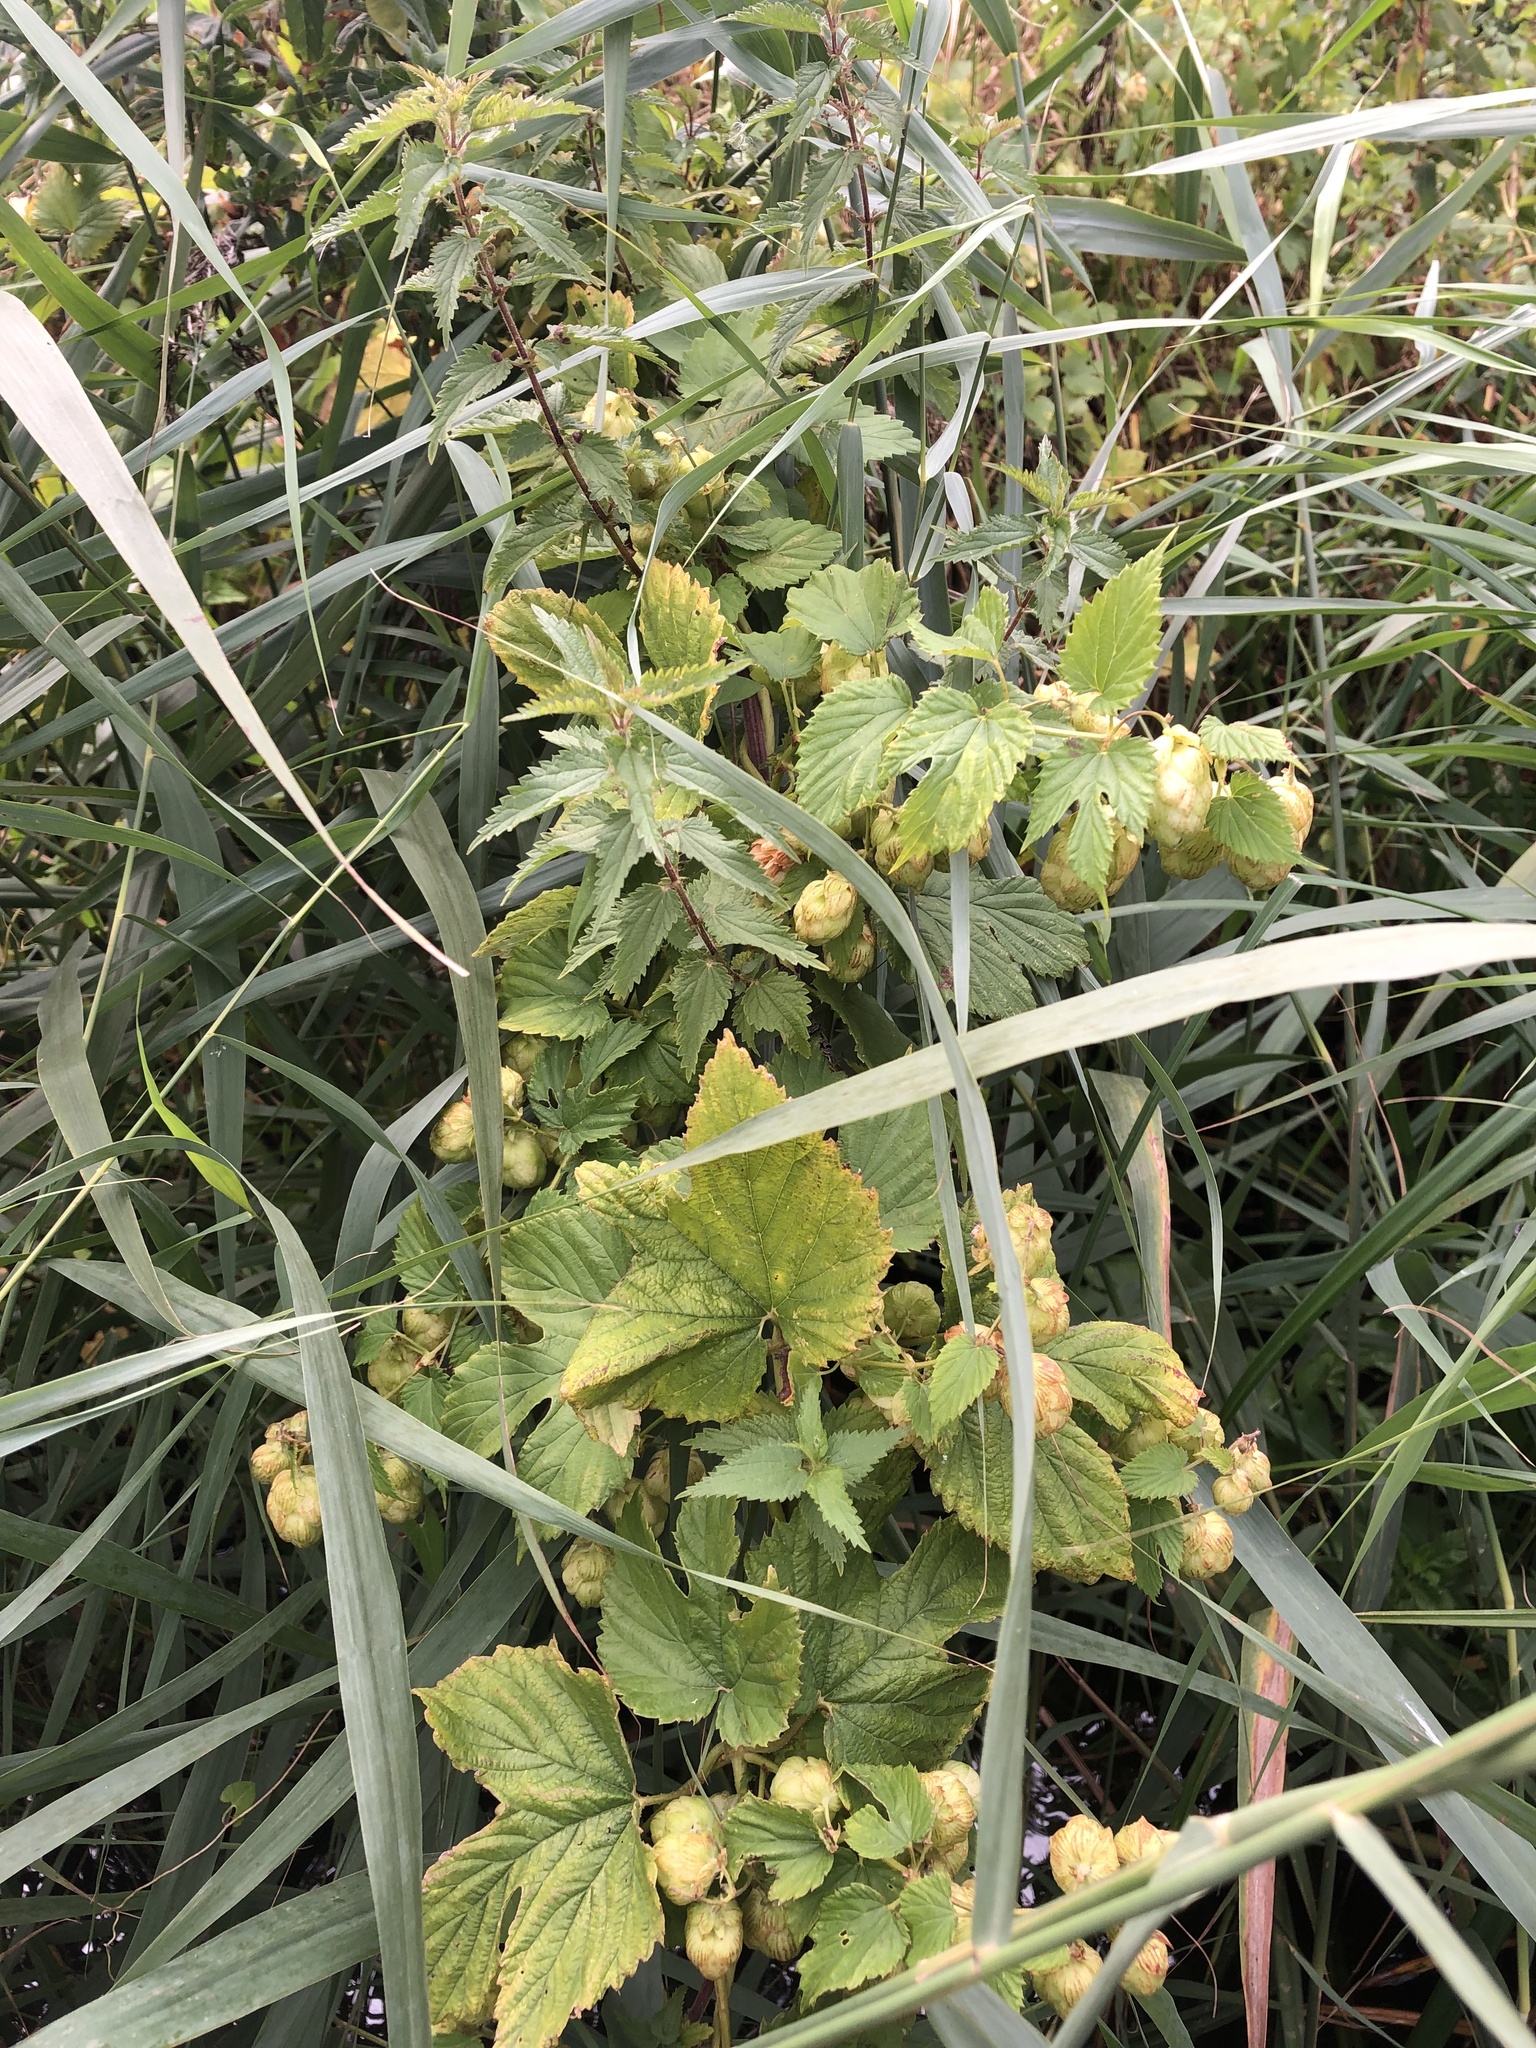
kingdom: Plantae
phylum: Tracheophyta
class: Magnoliopsida
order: Rosales
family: Cannabaceae
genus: Humulus
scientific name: Humulus lupulus
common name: Hop
